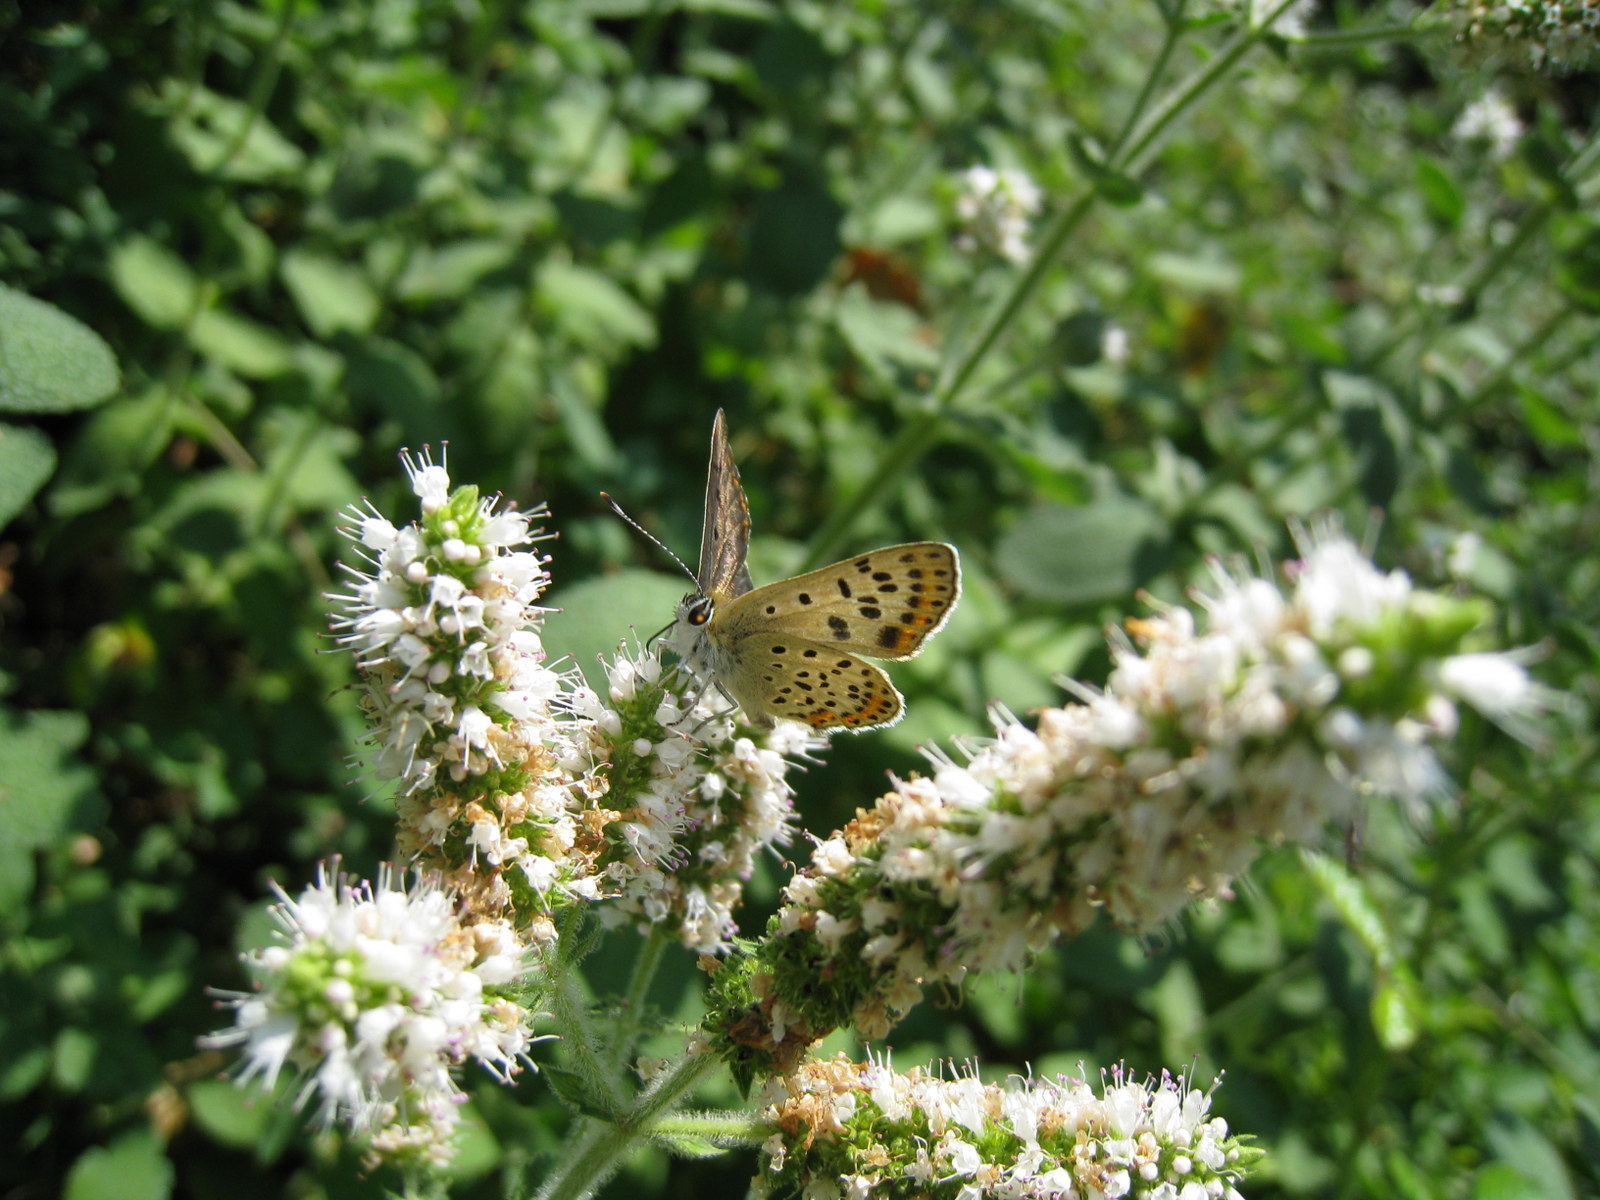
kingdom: Animalia
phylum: Arthropoda
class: Insecta
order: Lepidoptera
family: Lycaenidae
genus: Loweia
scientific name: Loweia tityrus
